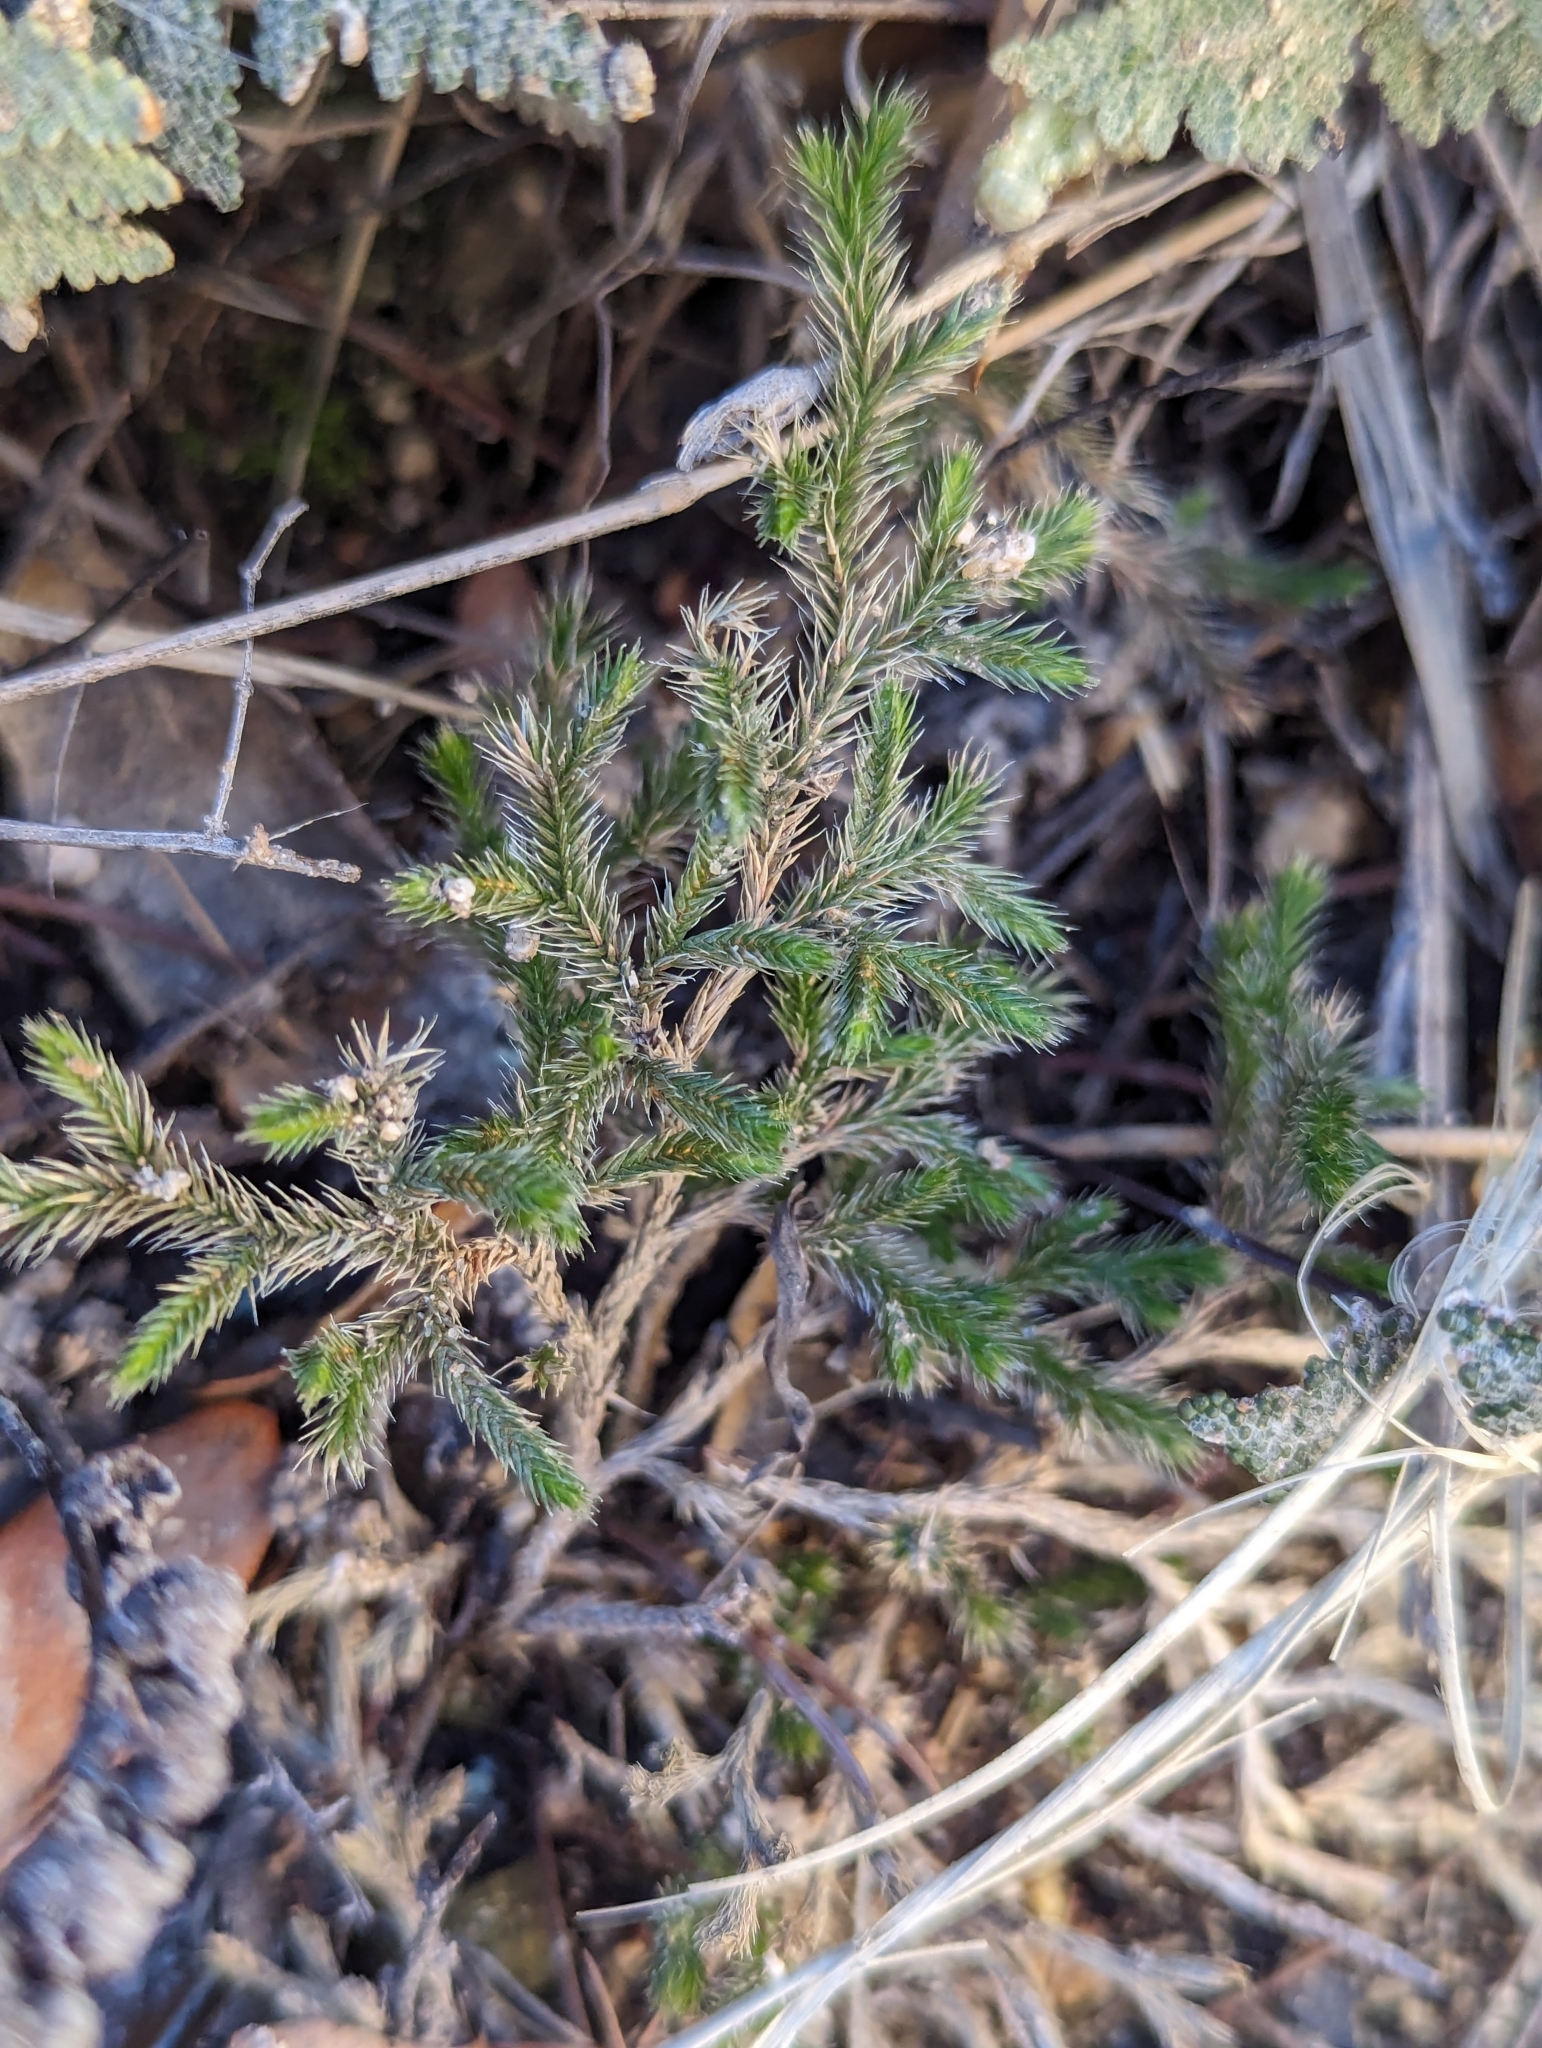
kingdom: Plantae
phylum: Tracheophyta
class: Lycopodiopsida
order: Selaginellales
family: Selaginellaceae
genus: Selaginella
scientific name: Selaginella rupincola
